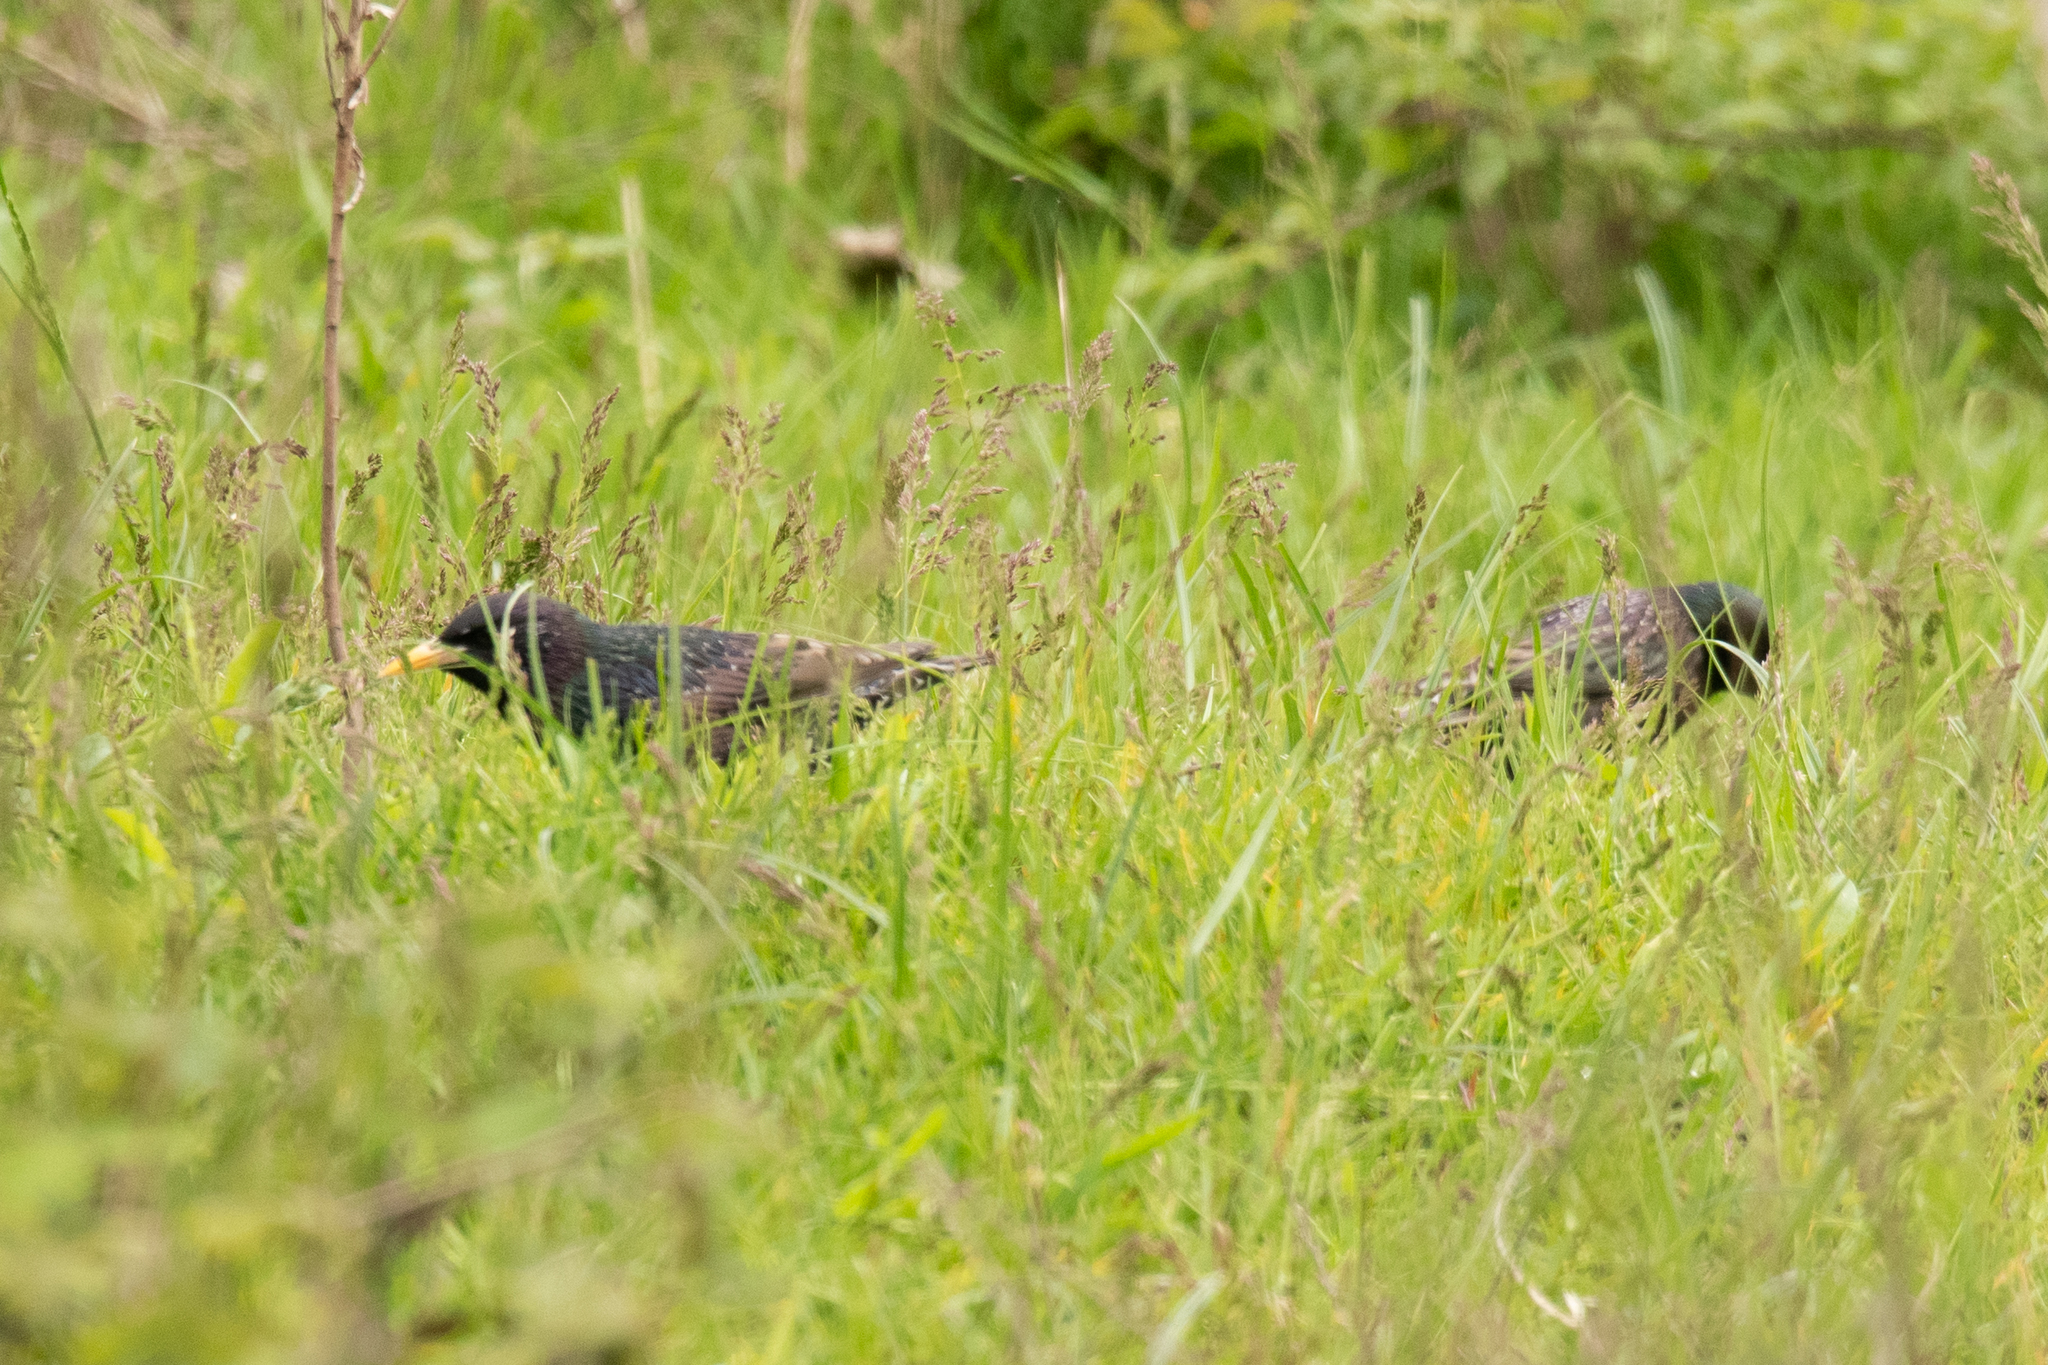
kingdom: Animalia
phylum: Chordata
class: Aves
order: Passeriformes
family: Sturnidae
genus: Sturnus
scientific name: Sturnus vulgaris
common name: Common starling
